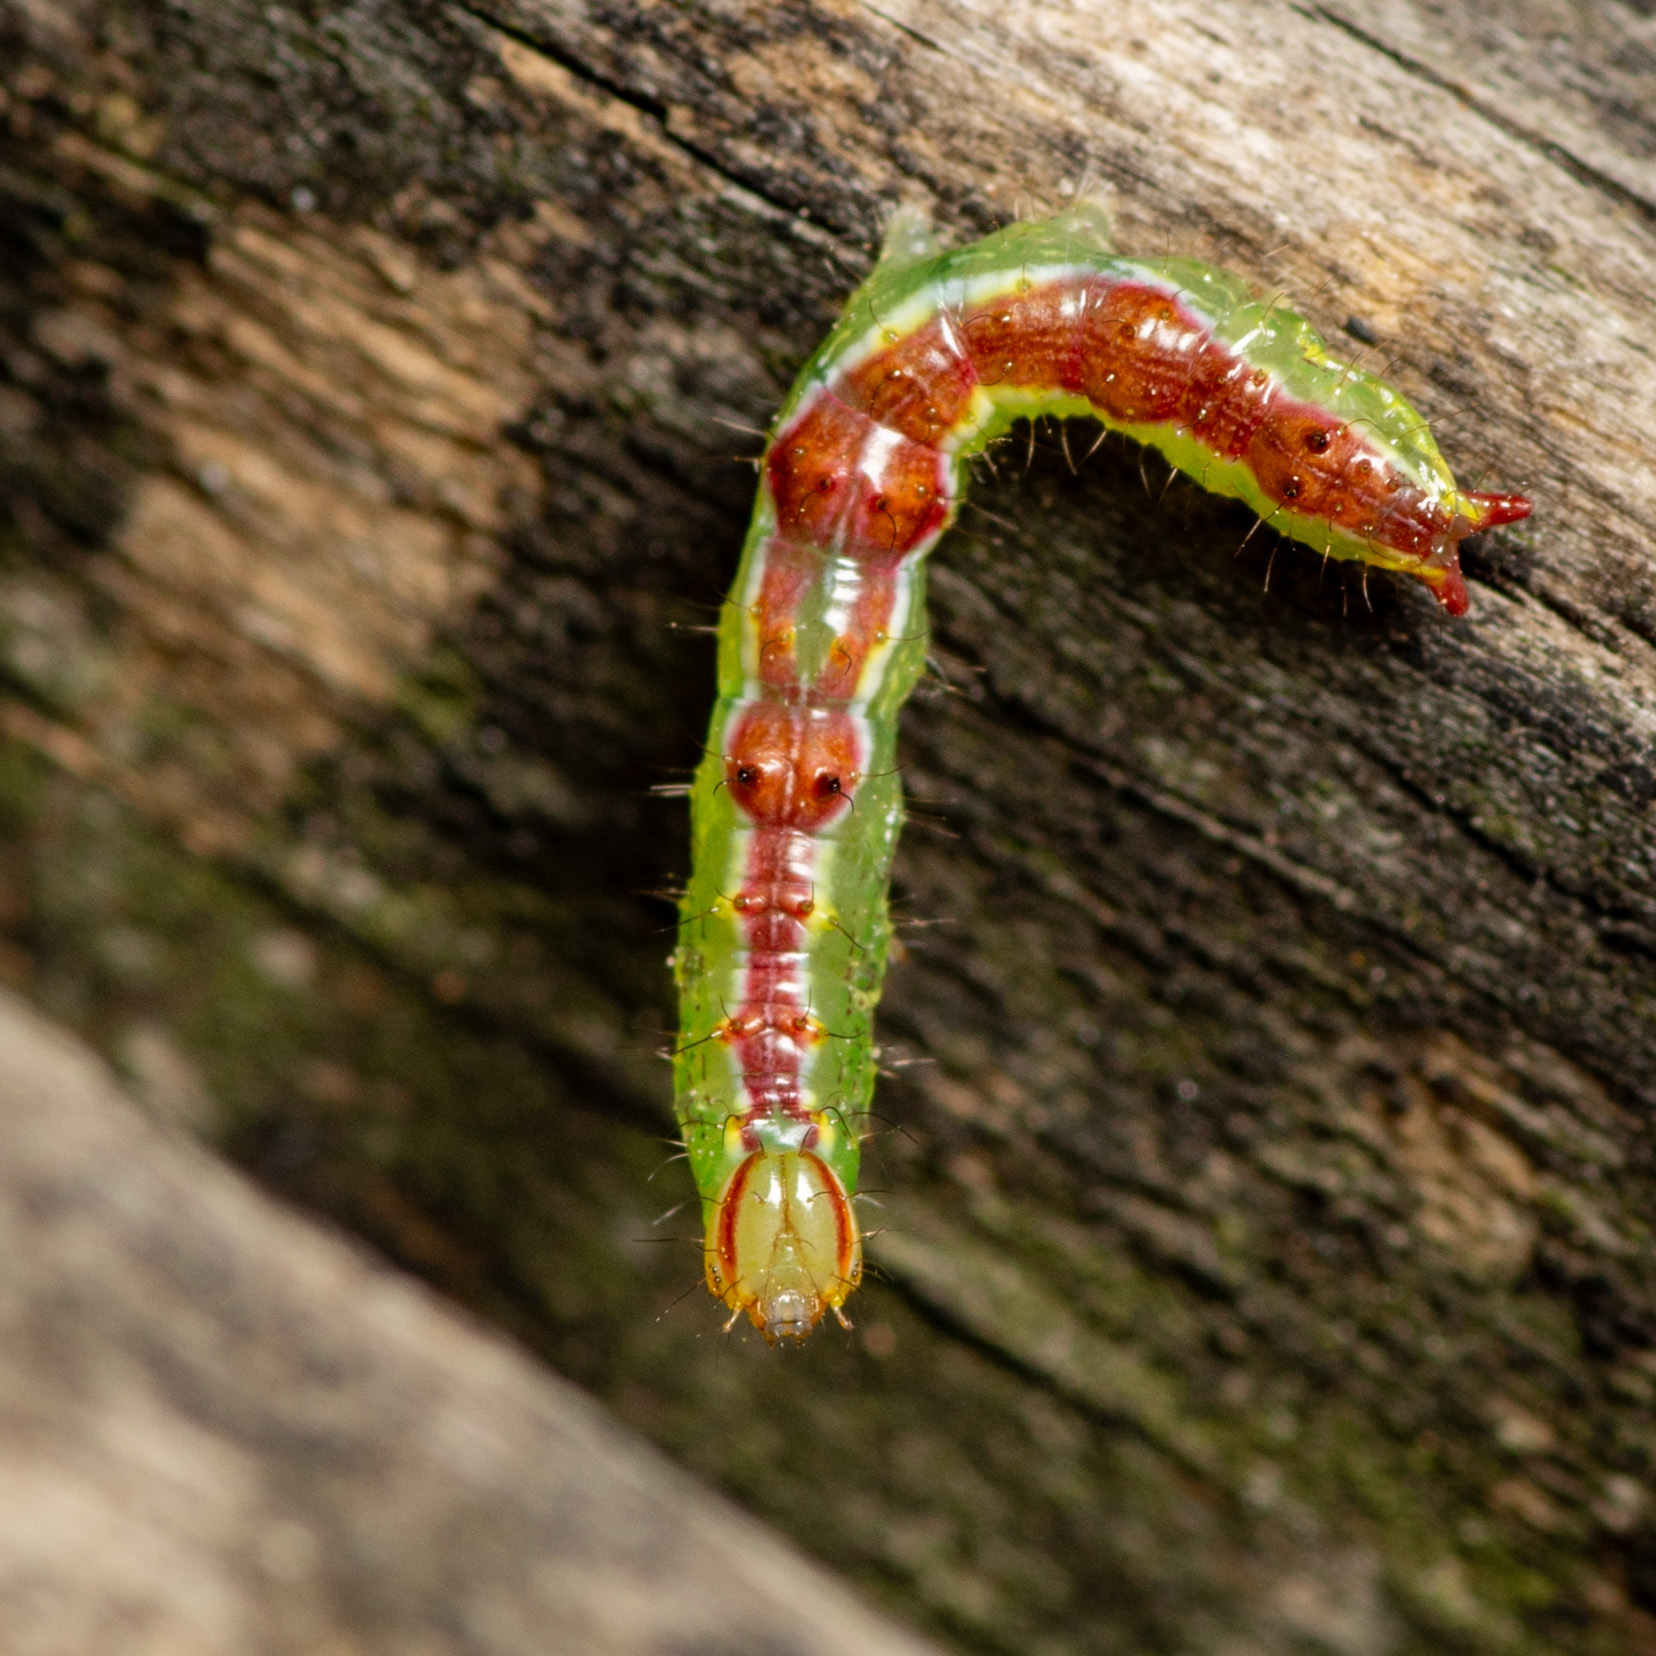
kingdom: Animalia
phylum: Arthropoda
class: Insecta
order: Lepidoptera
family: Notodontidae
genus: Lochmaeus
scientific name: Lochmaeus bilineata
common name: Double-lined prominent
